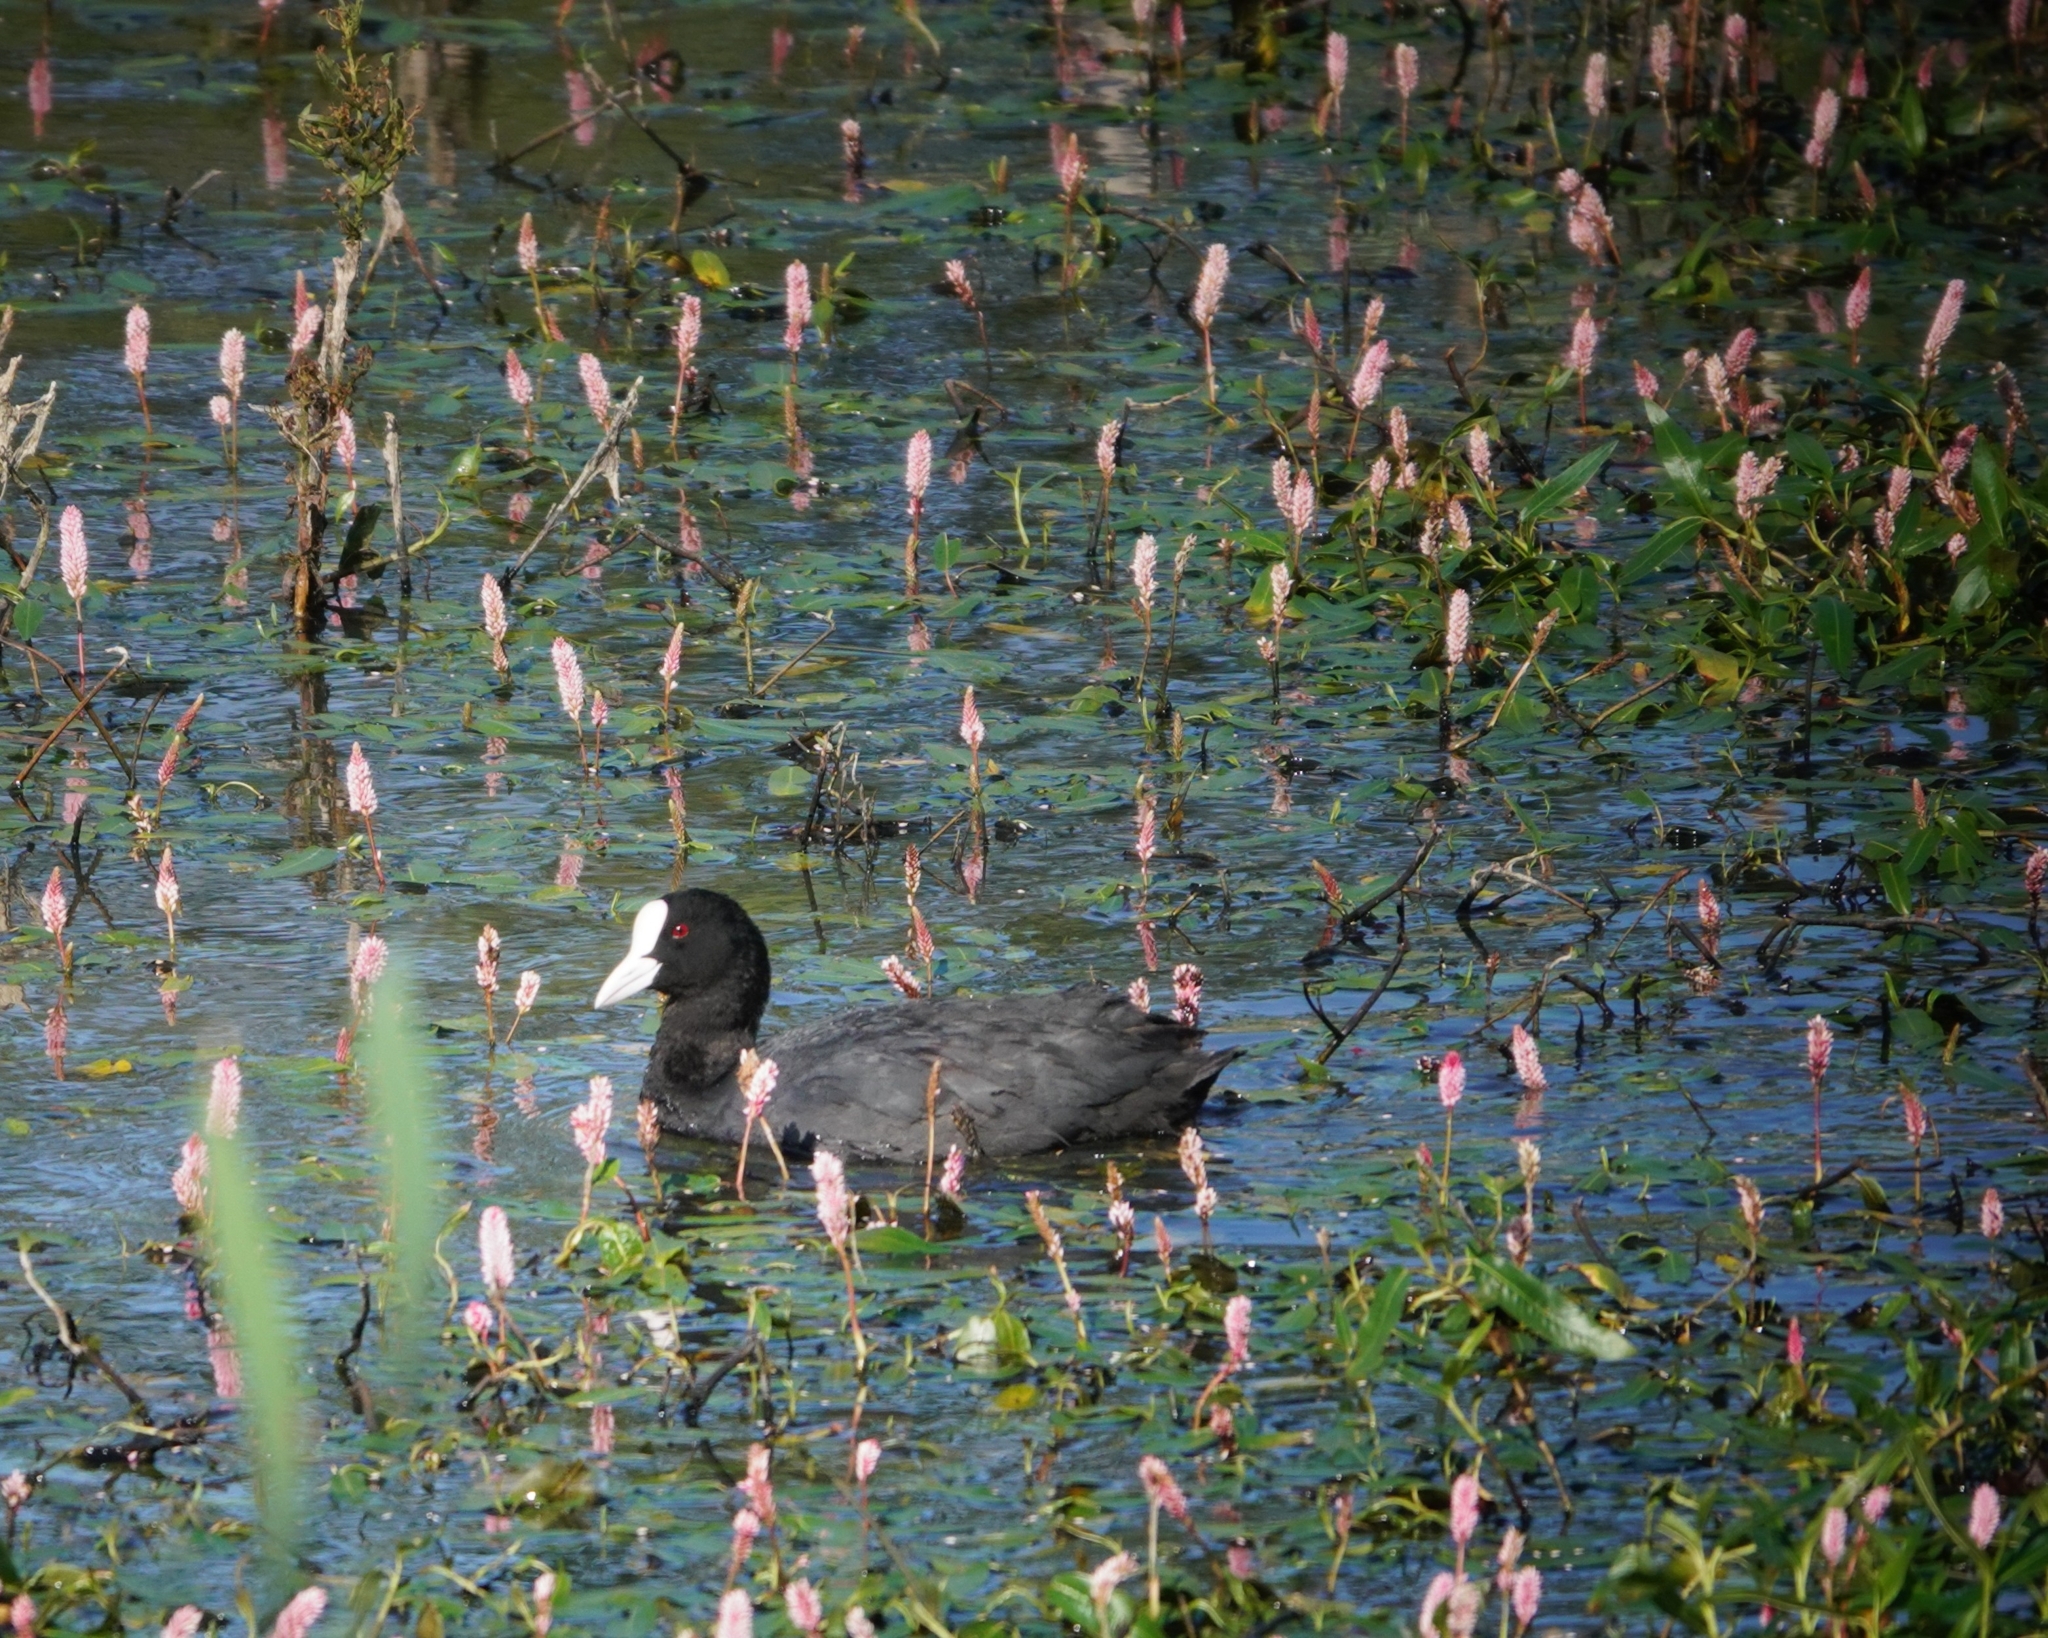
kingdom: Animalia
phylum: Chordata
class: Aves
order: Gruiformes
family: Rallidae
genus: Fulica
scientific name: Fulica atra
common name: Eurasian coot
